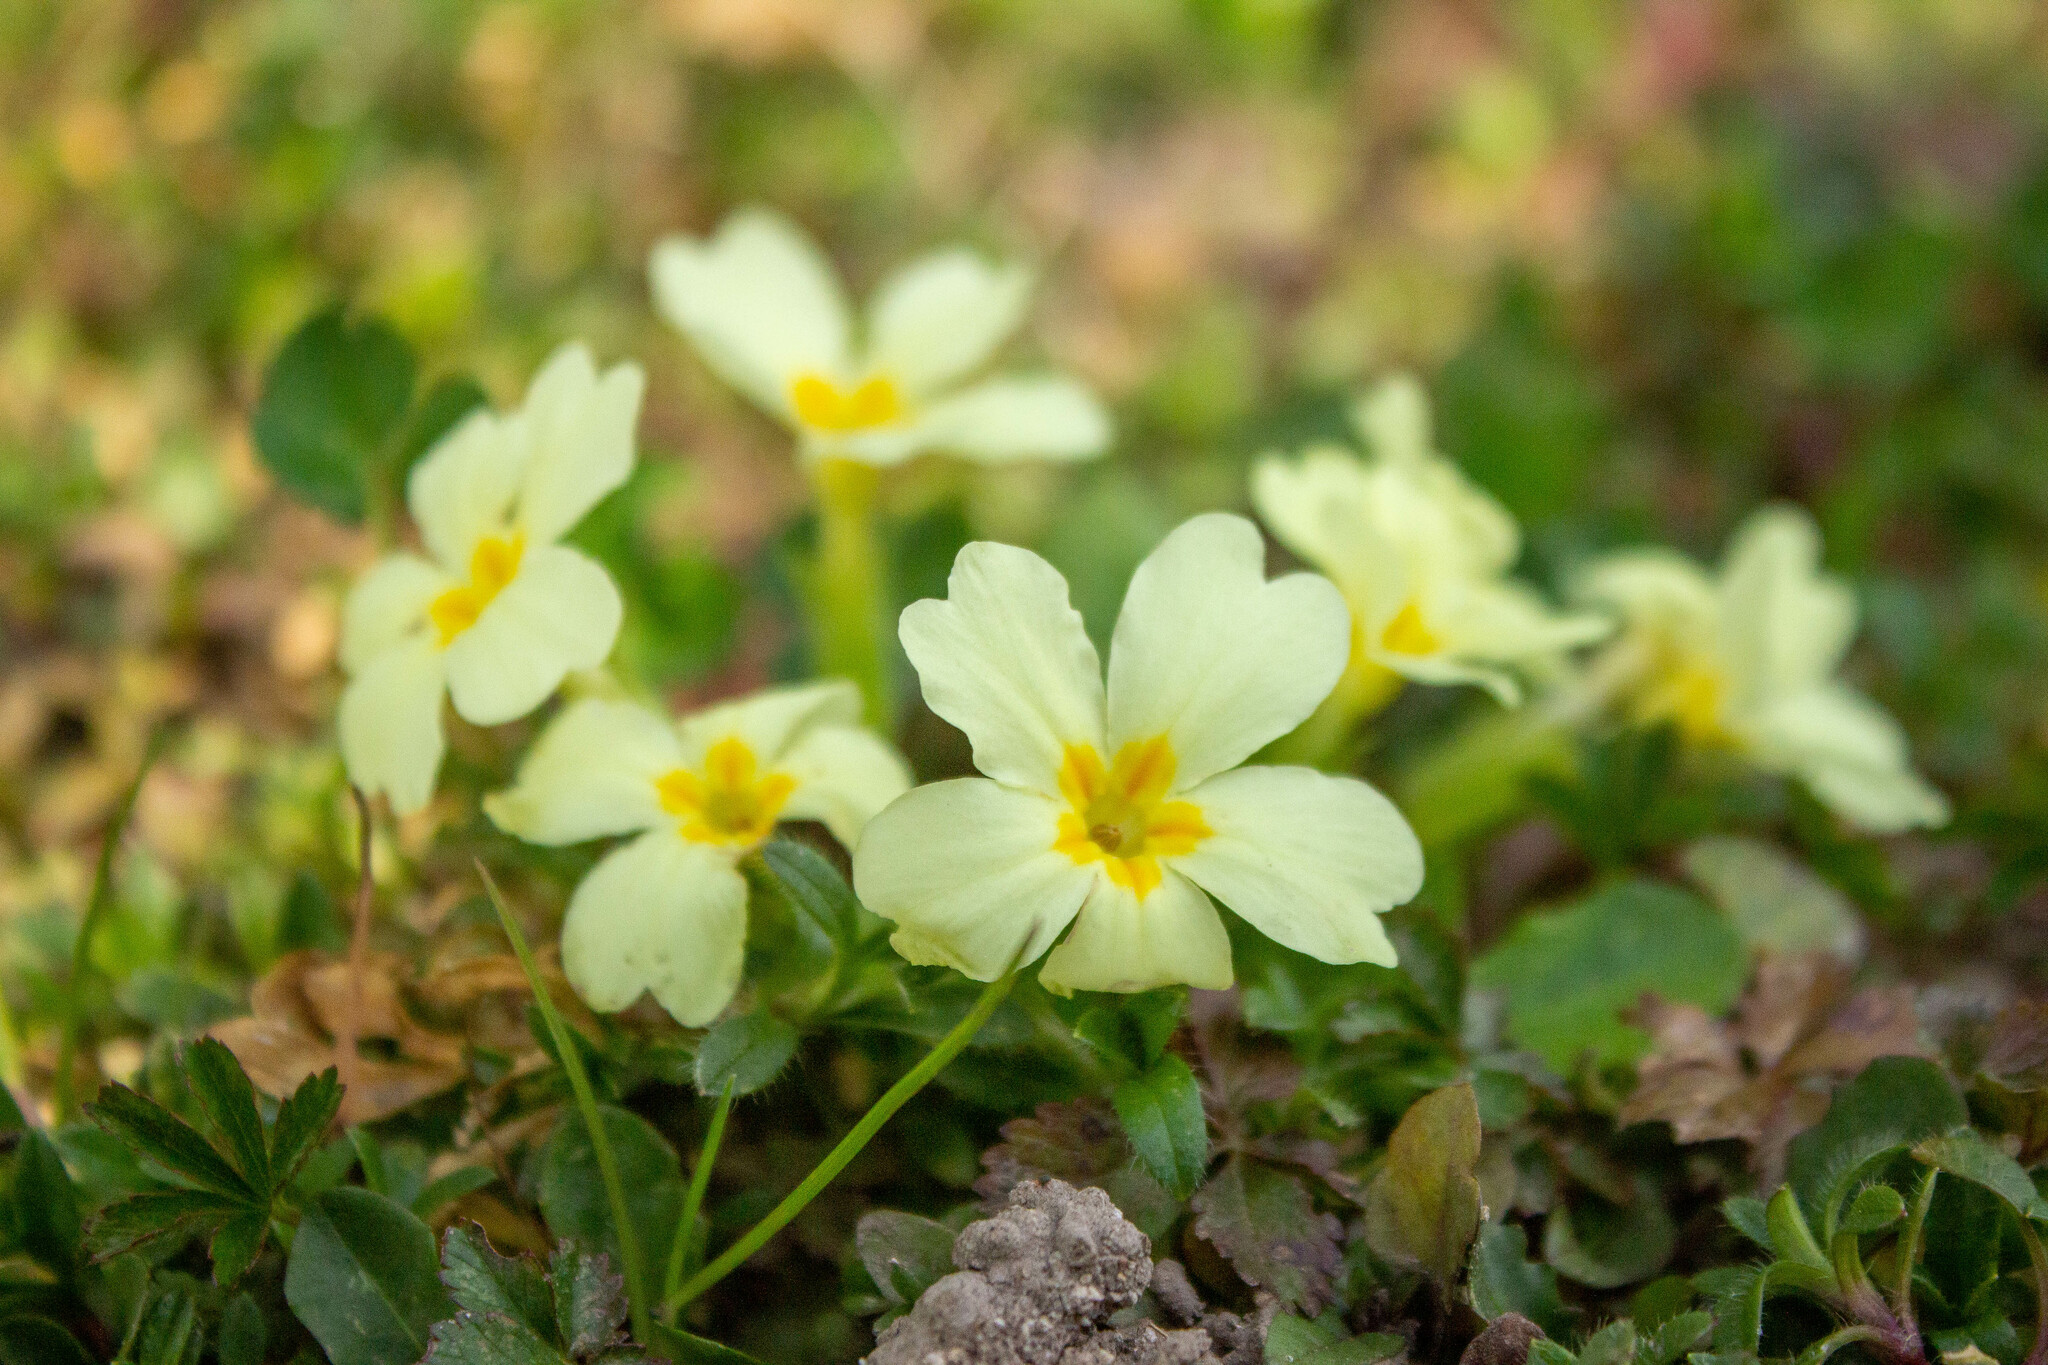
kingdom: Plantae
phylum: Tracheophyta
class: Magnoliopsida
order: Ericales
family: Primulaceae
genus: Primula
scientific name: Primula vulgaris
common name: Primrose
